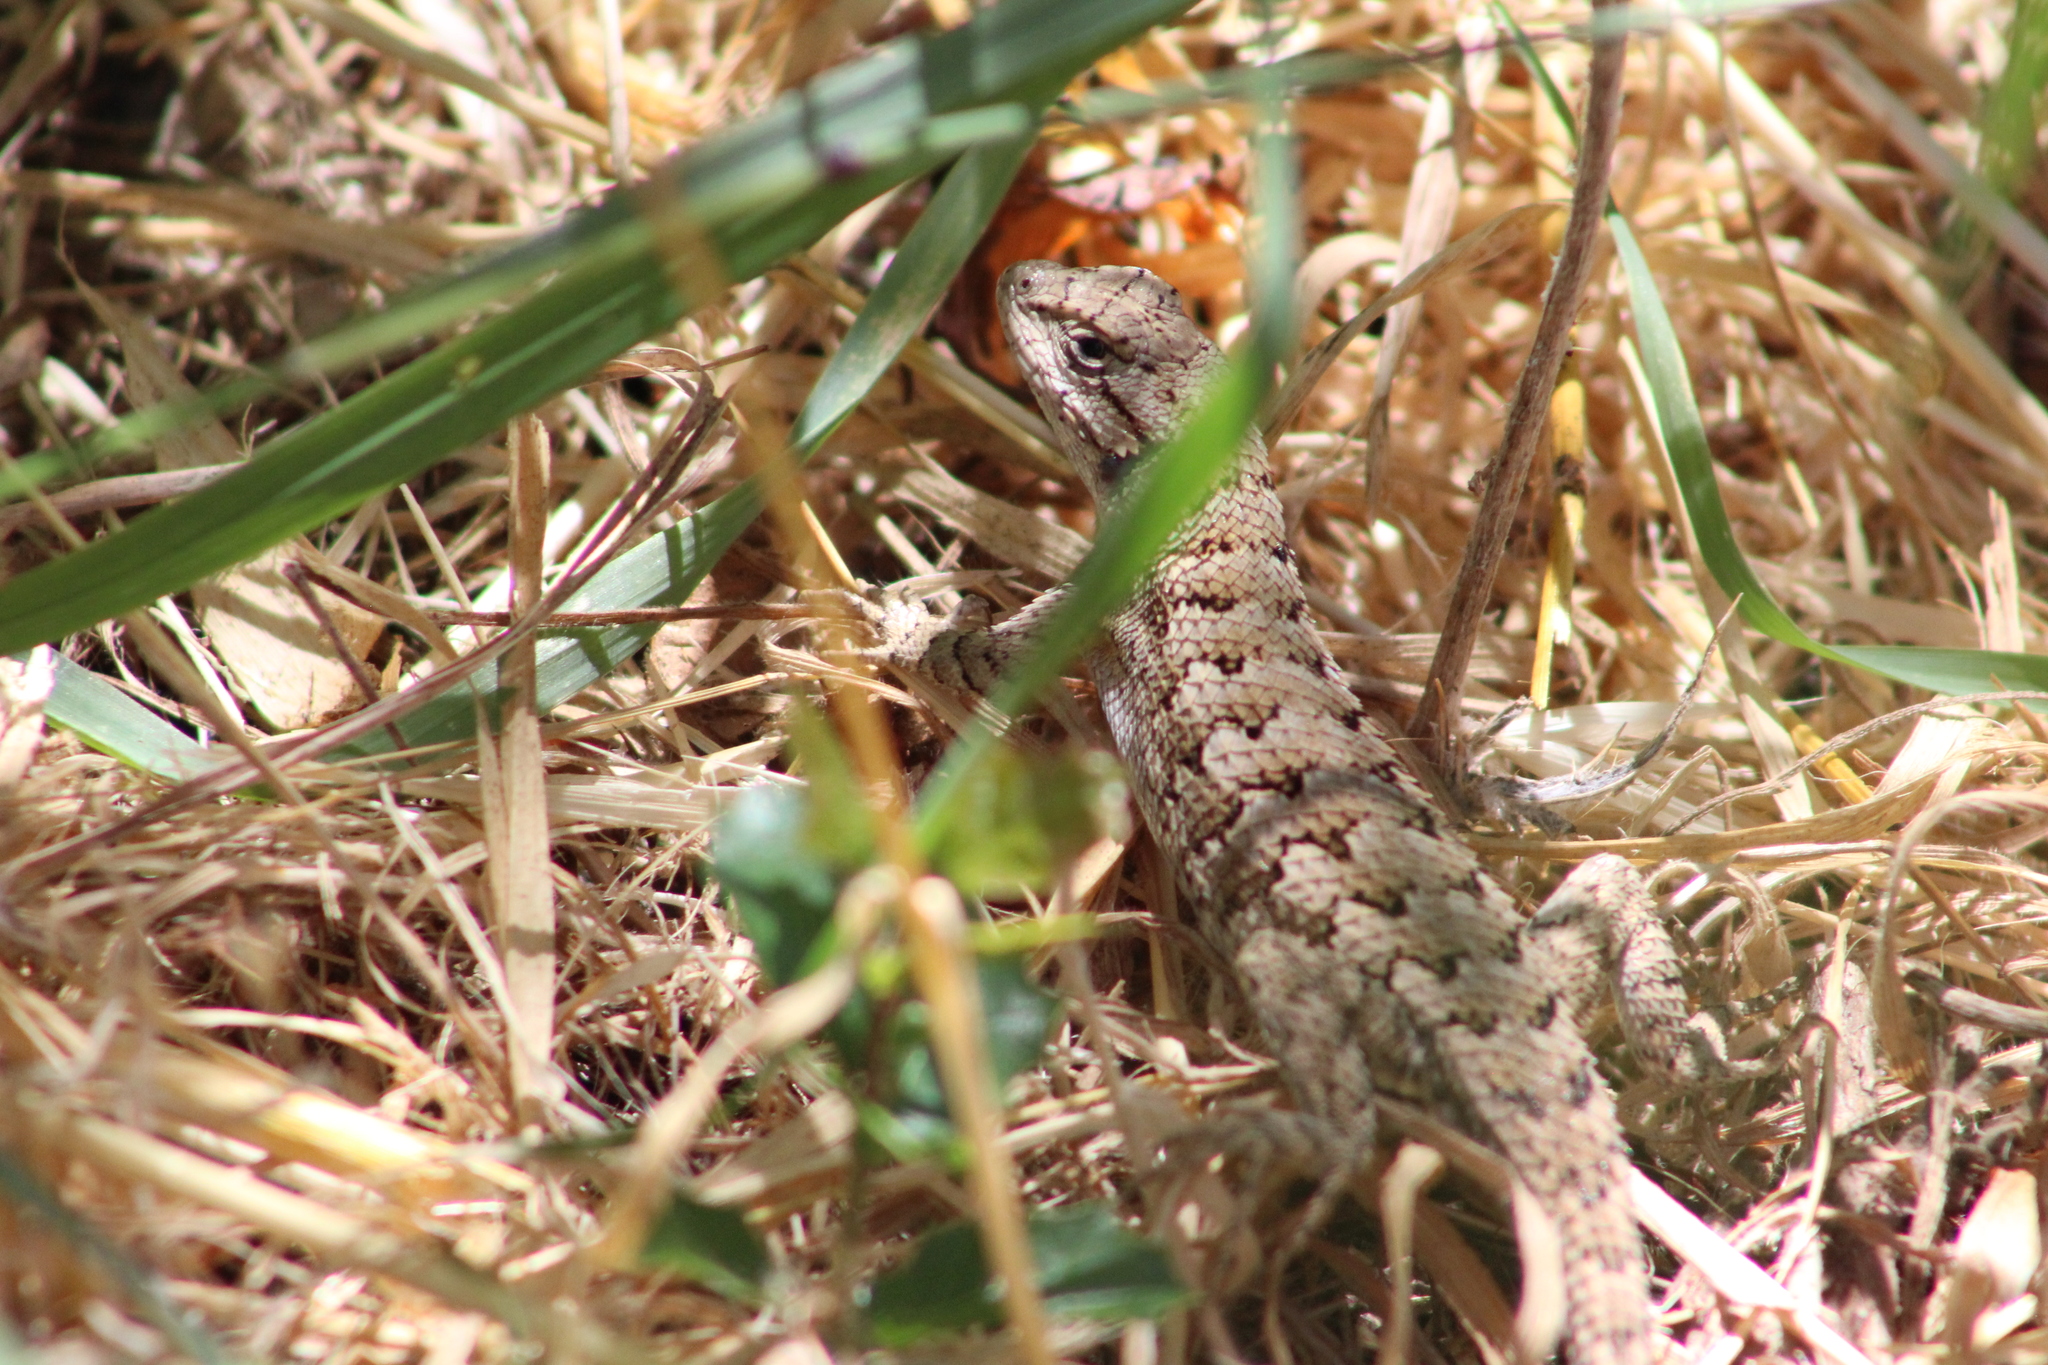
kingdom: Animalia
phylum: Chordata
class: Squamata
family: Phrynosomatidae
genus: Sceloporus
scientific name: Sceloporus occidentalis
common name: Western fence lizard
